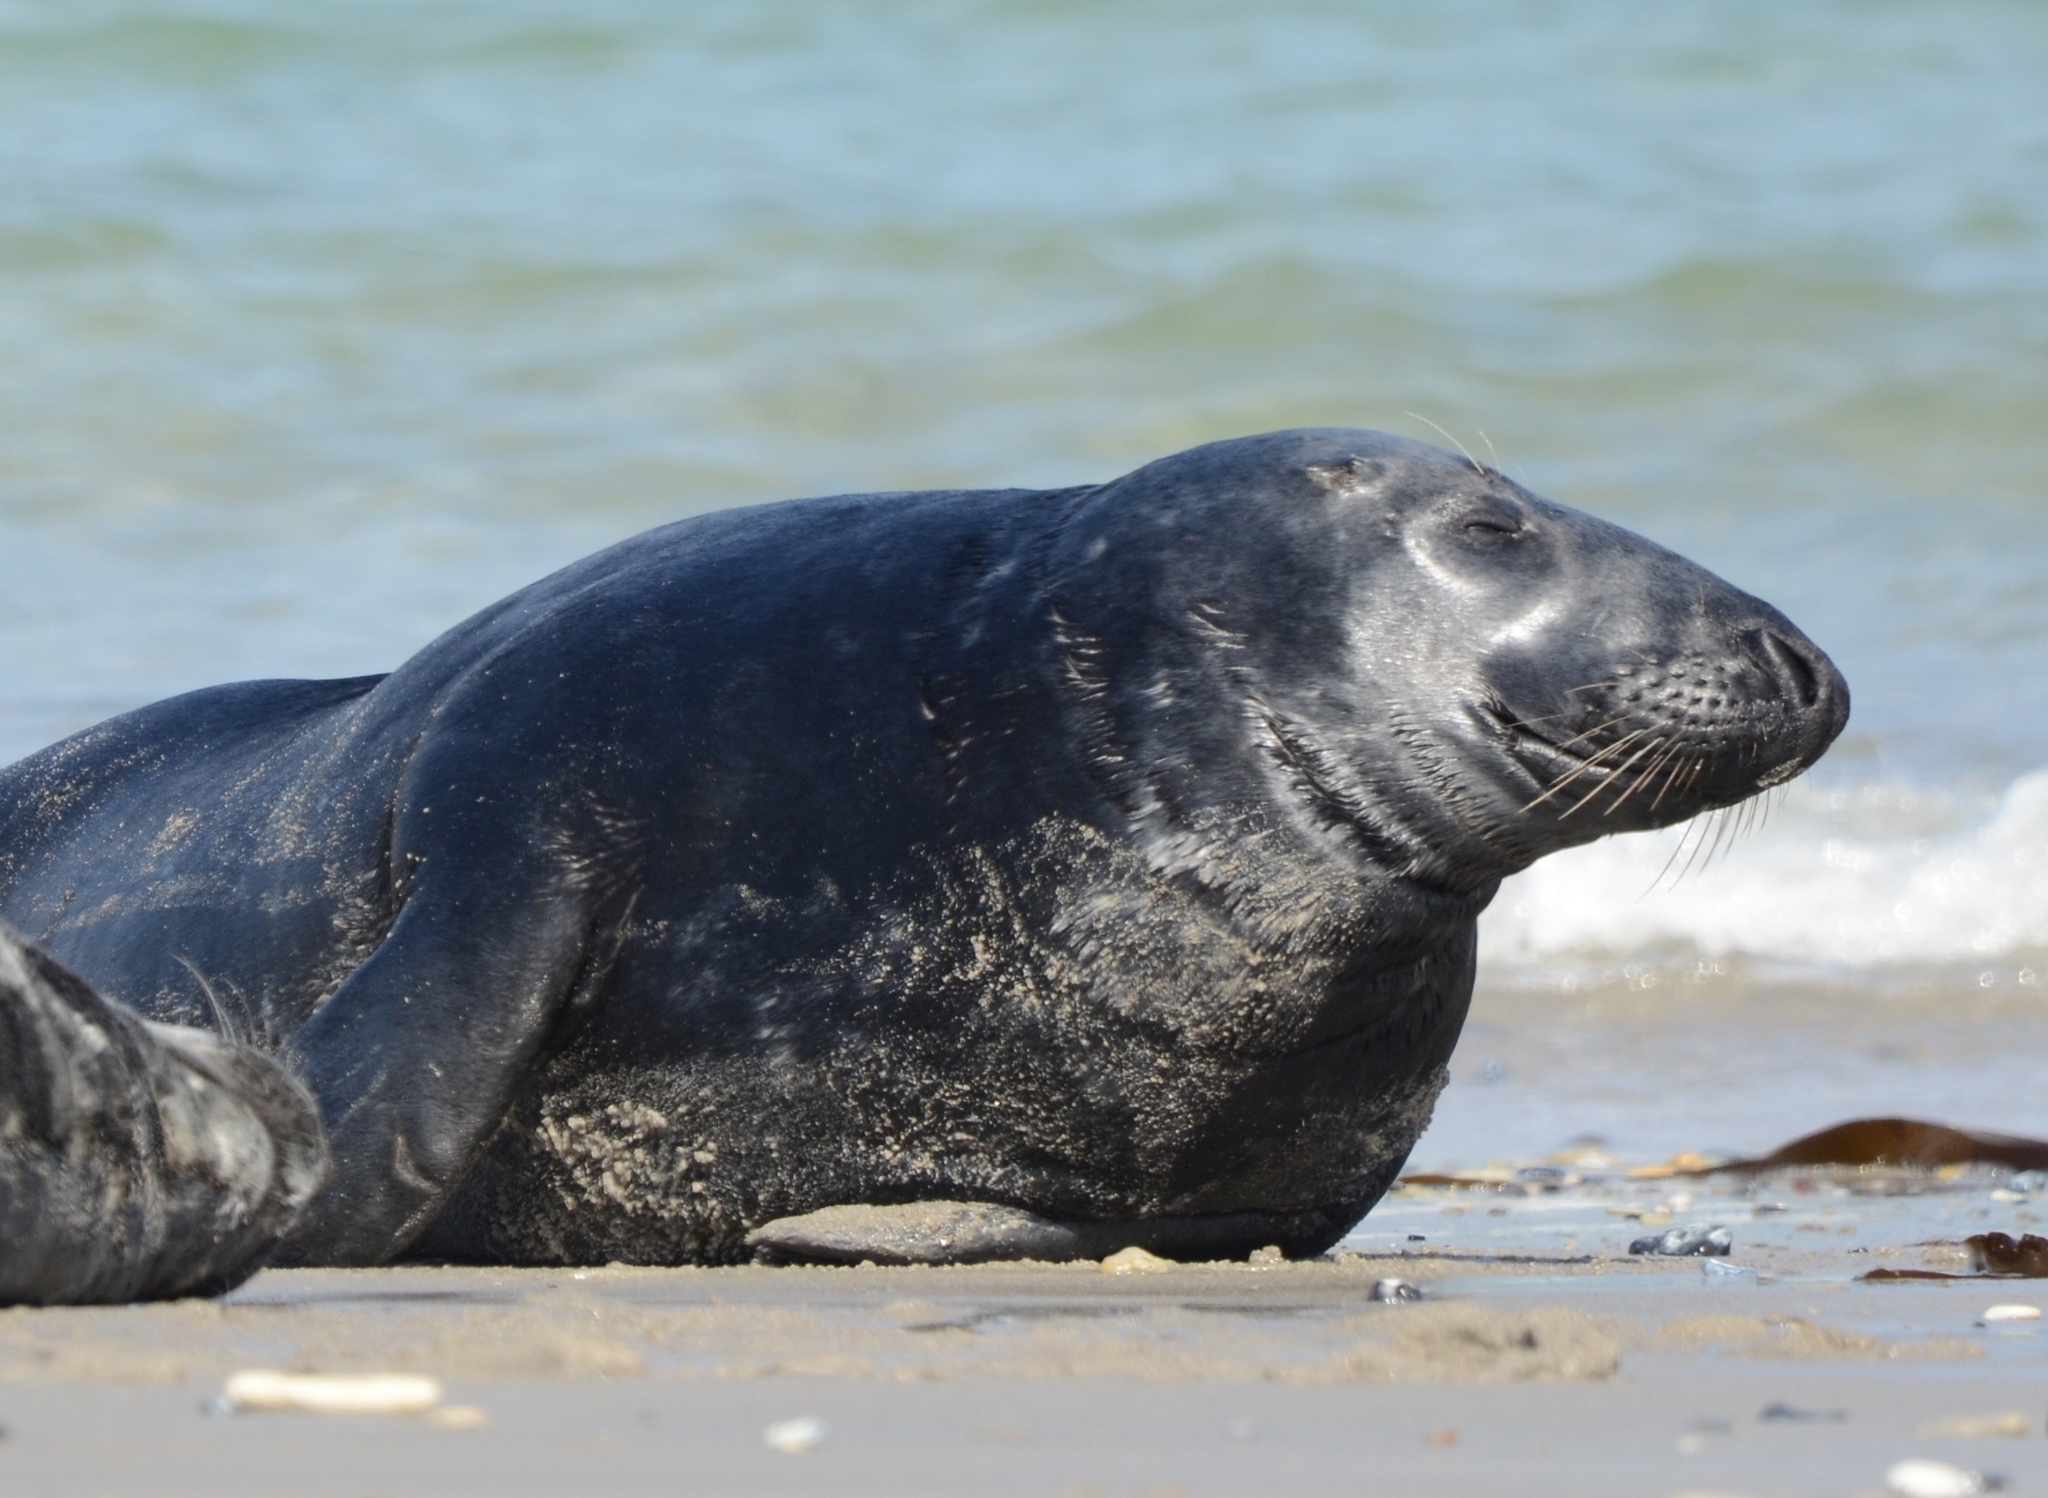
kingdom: Animalia
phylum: Chordata
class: Mammalia
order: Carnivora
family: Phocidae
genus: Halichoerus
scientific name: Halichoerus grypus
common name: Grey seal
